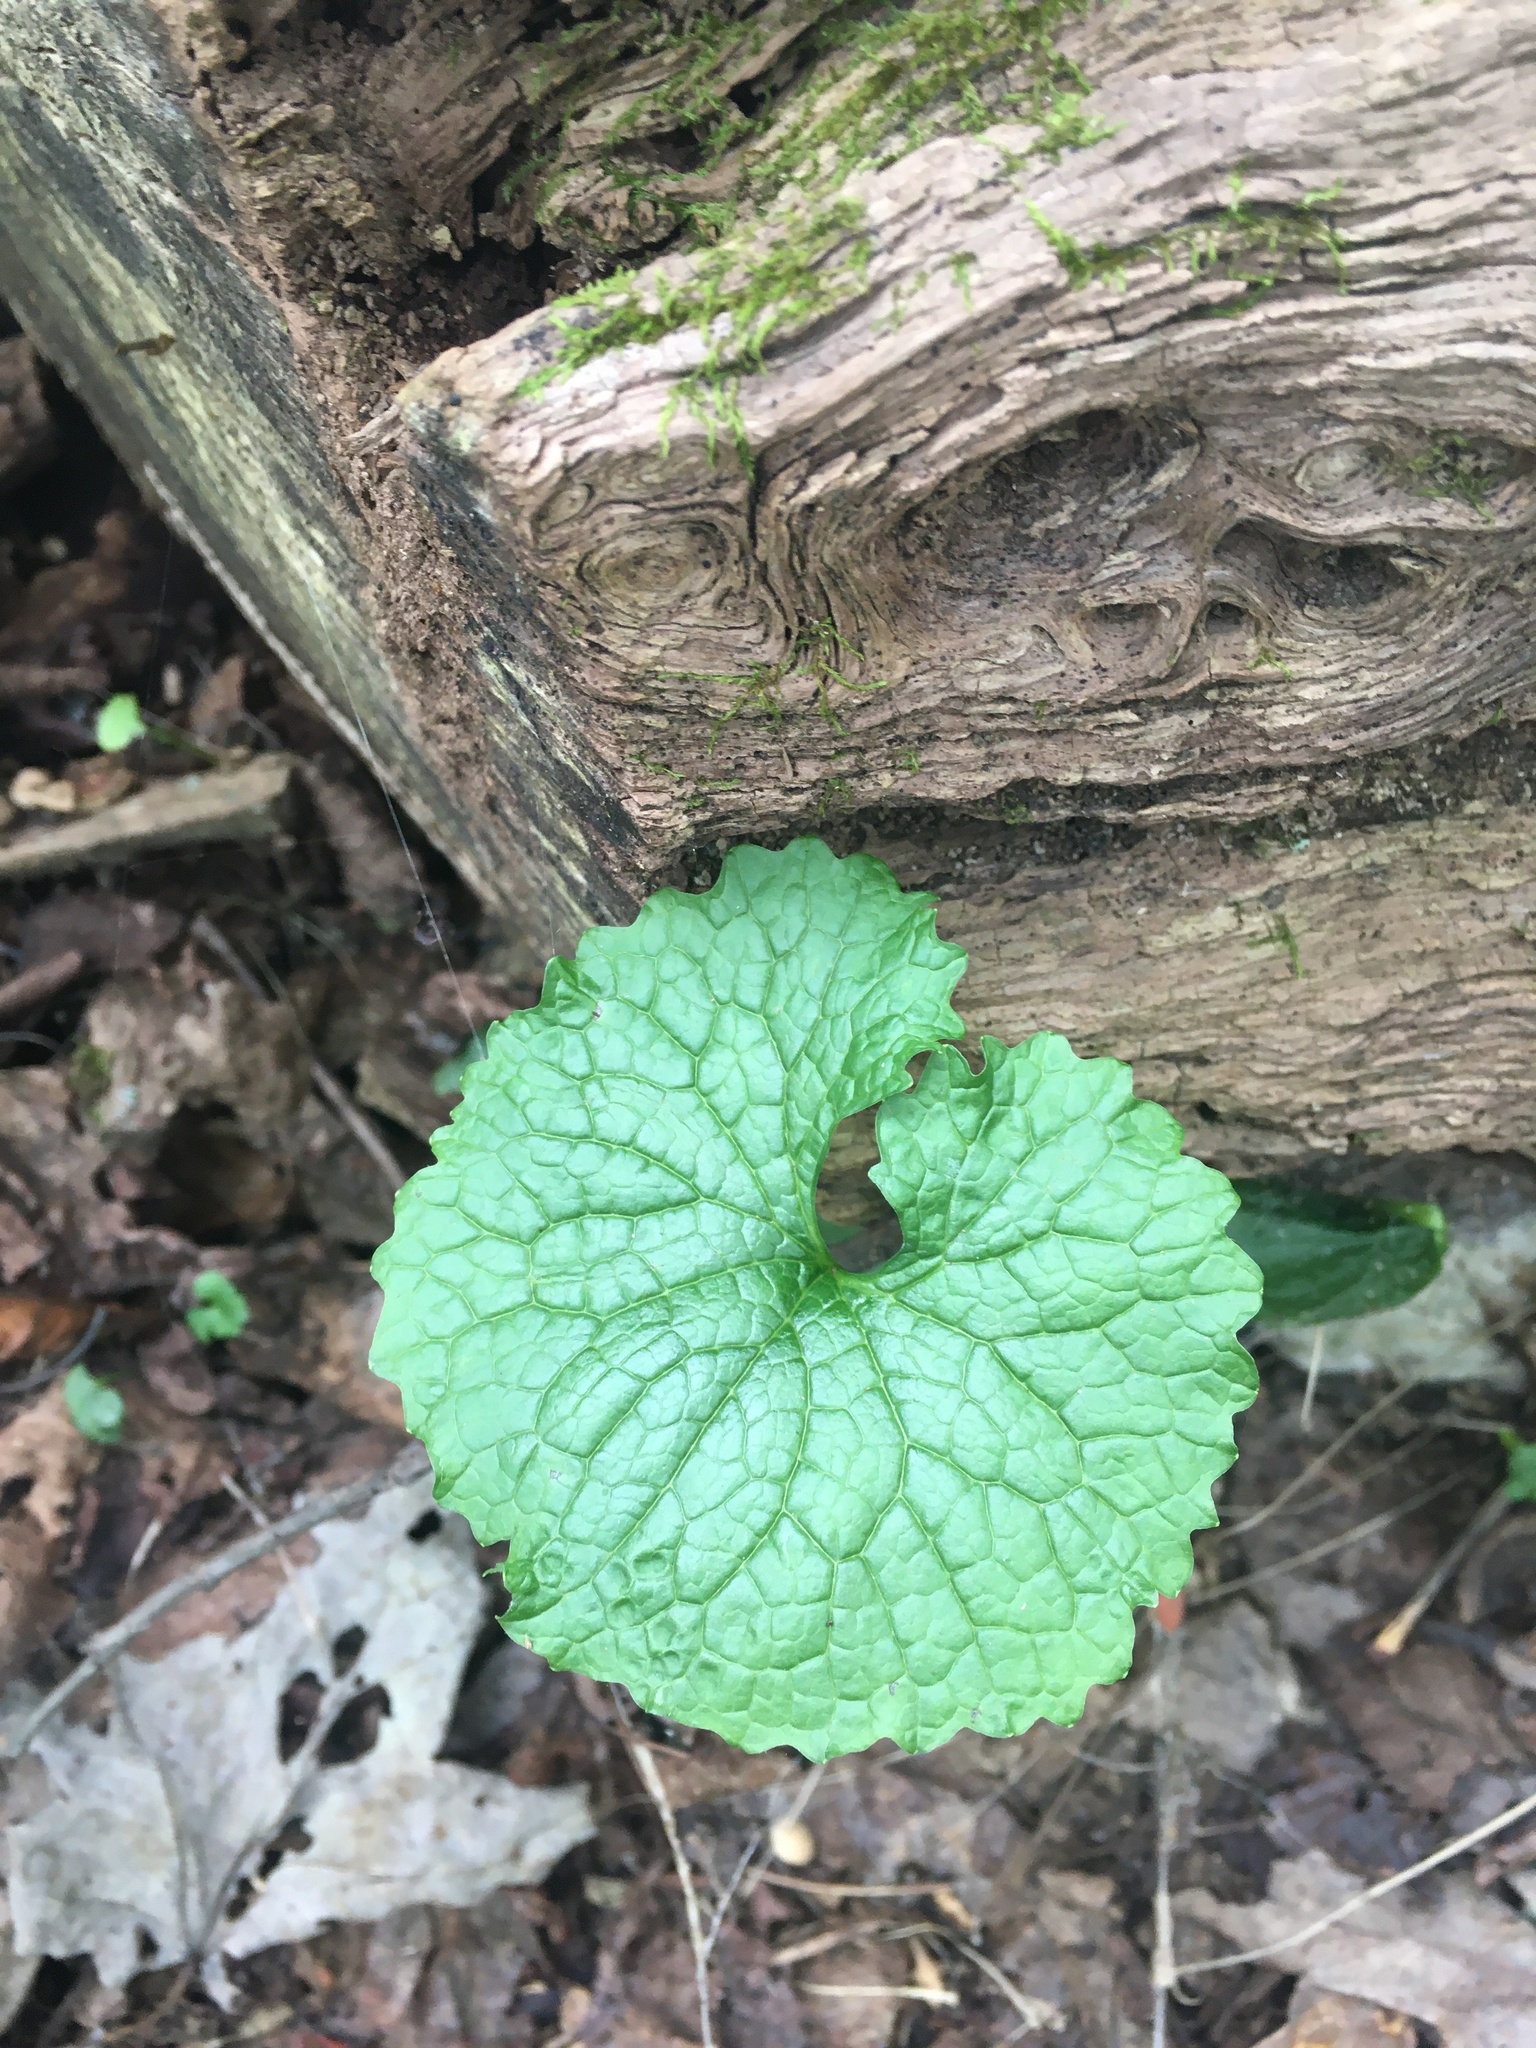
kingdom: Plantae
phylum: Tracheophyta
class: Magnoliopsida
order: Brassicales
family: Brassicaceae
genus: Alliaria
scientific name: Alliaria petiolata
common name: Garlic mustard
